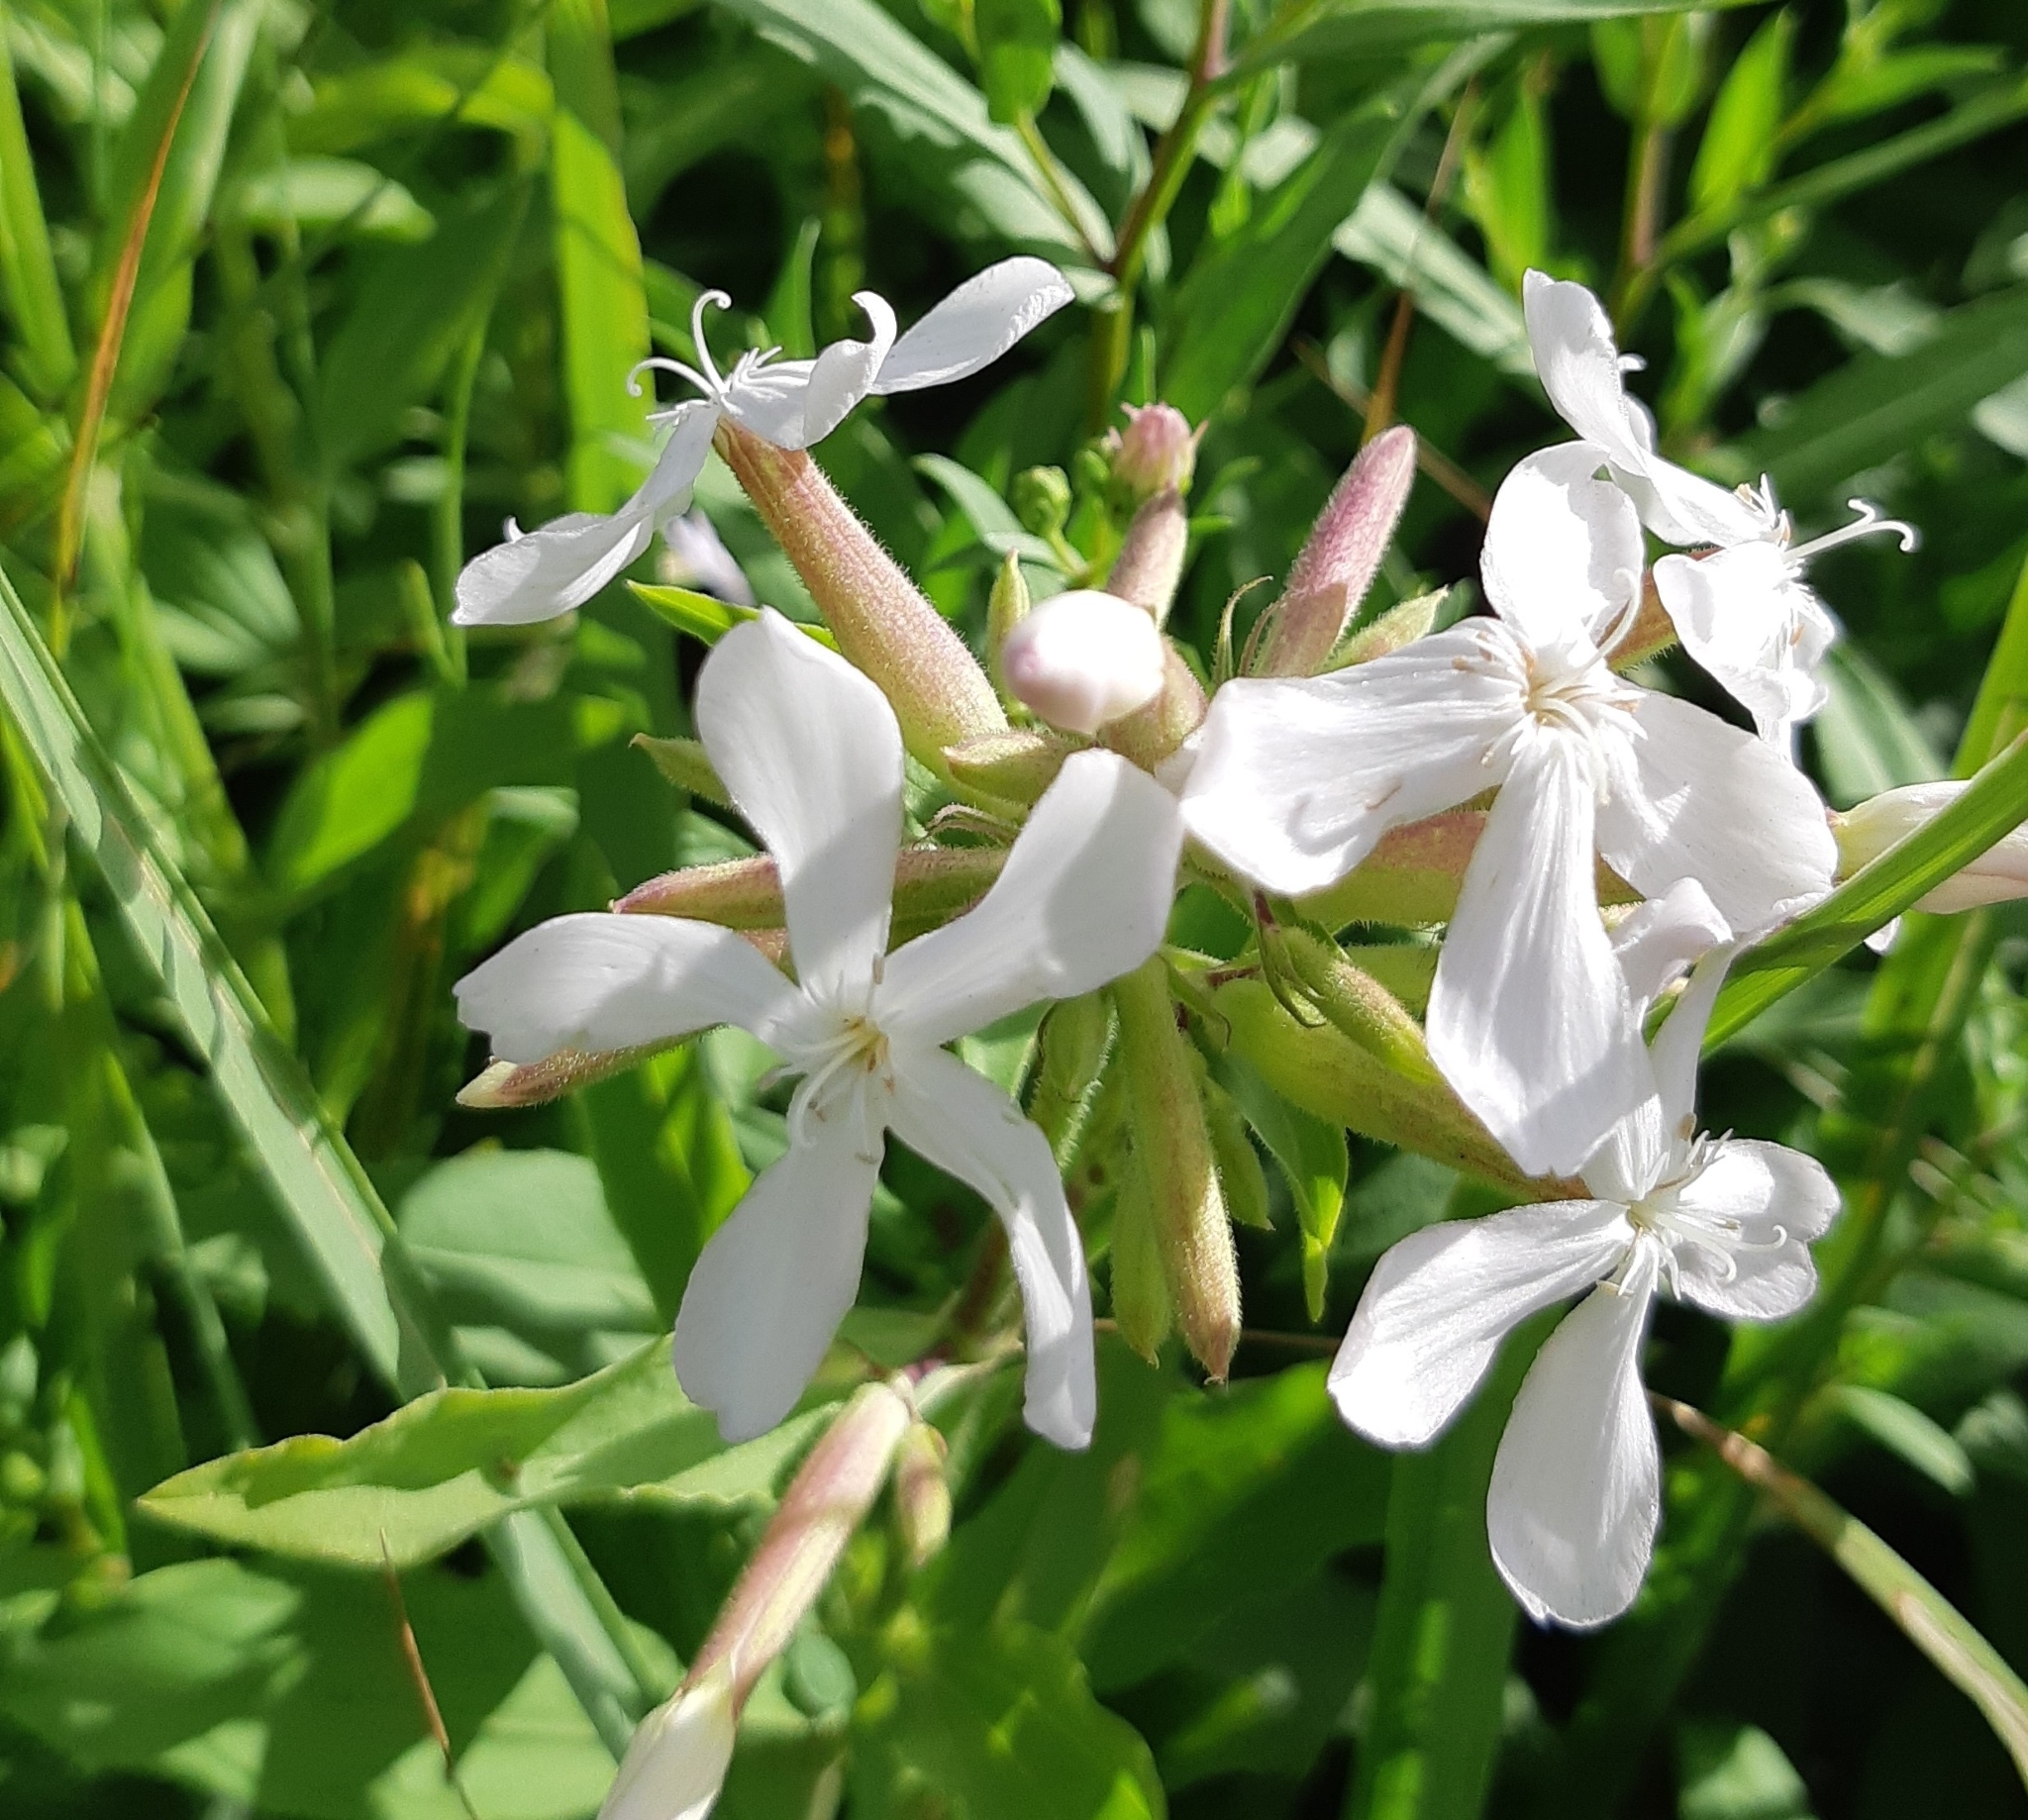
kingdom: Plantae
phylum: Tracheophyta
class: Magnoliopsida
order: Caryophyllales
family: Caryophyllaceae
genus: Saponaria
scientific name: Saponaria officinalis
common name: Soapwort
